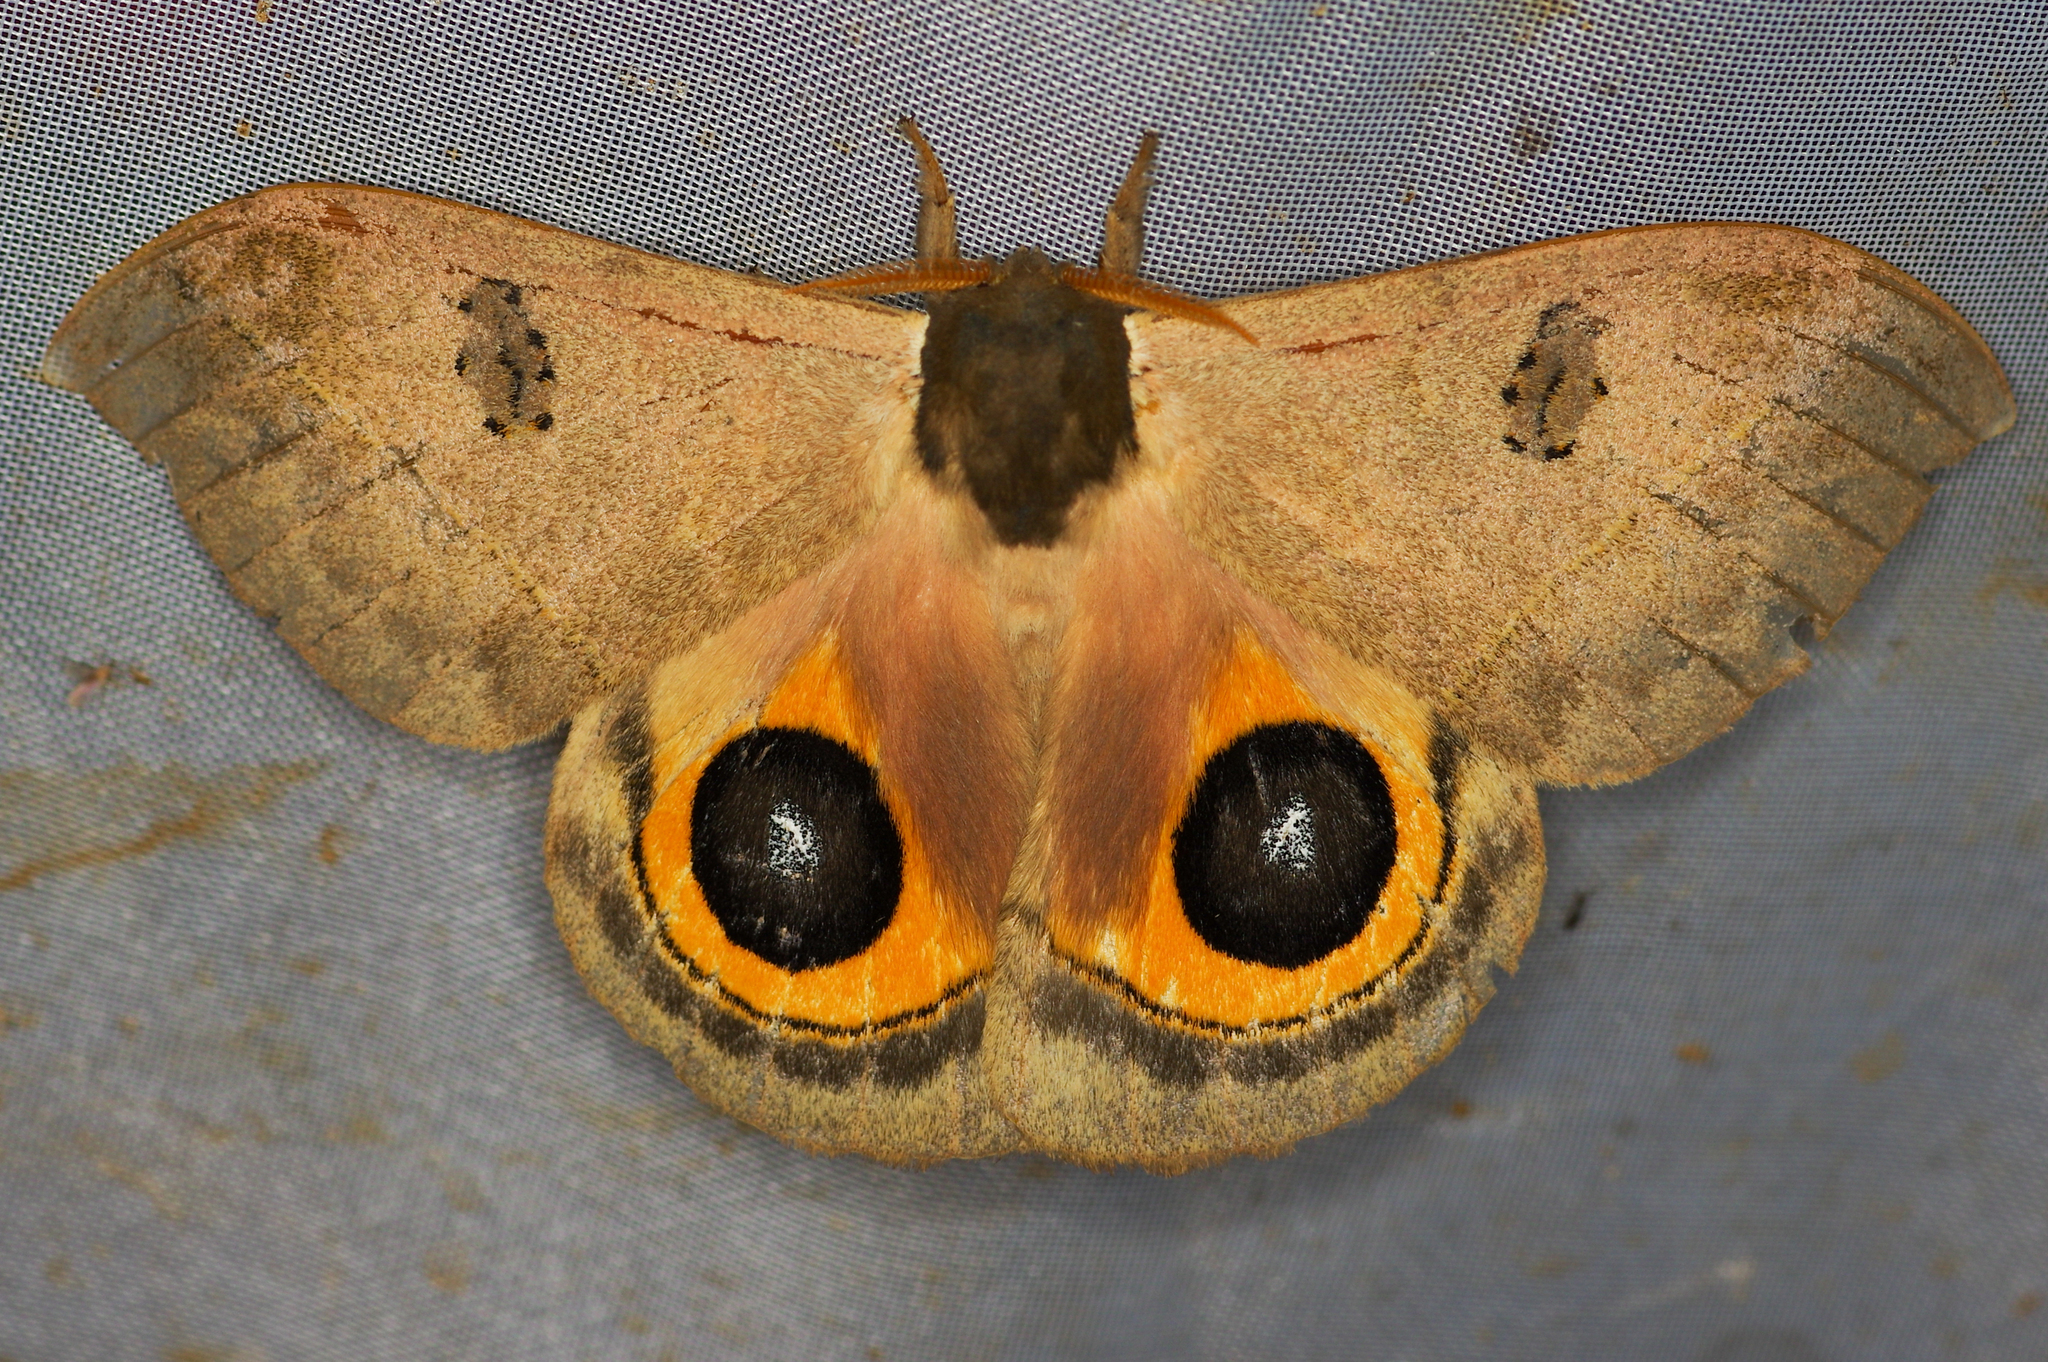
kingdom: Animalia
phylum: Arthropoda
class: Insecta
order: Lepidoptera
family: Saturniidae
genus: Automeris
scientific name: Automeris orestes
